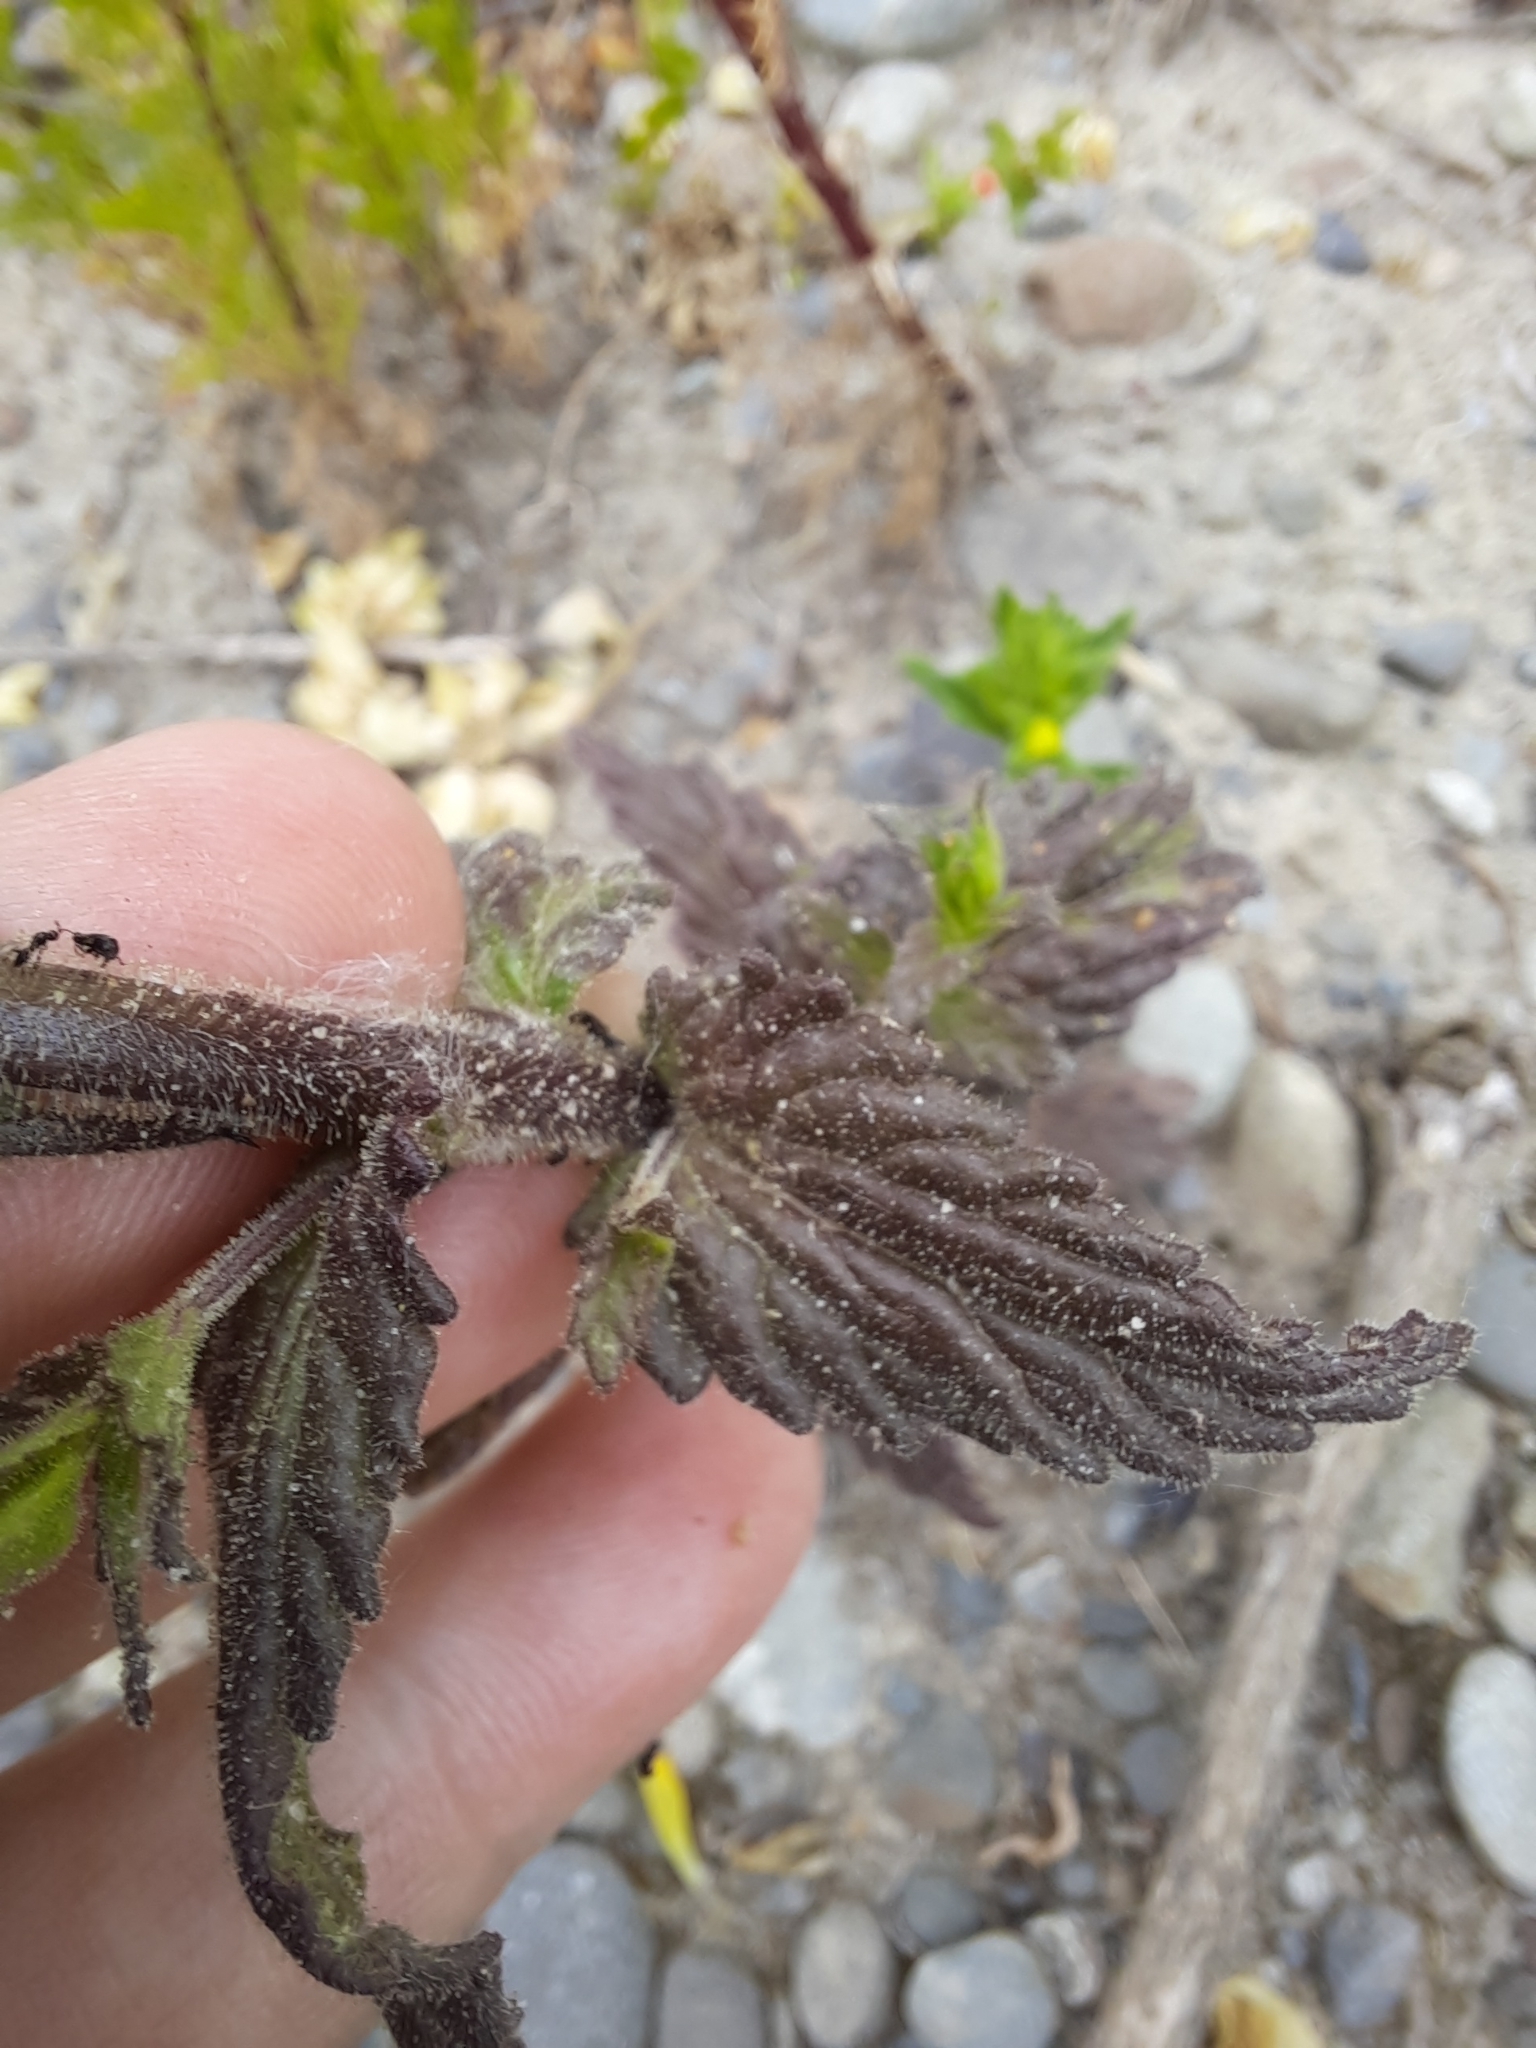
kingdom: Plantae
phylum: Tracheophyta
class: Magnoliopsida
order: Lamiales
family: Orobanchaceae
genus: Bellardia
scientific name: Bellardia viscosa
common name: Sticky parentucellia
